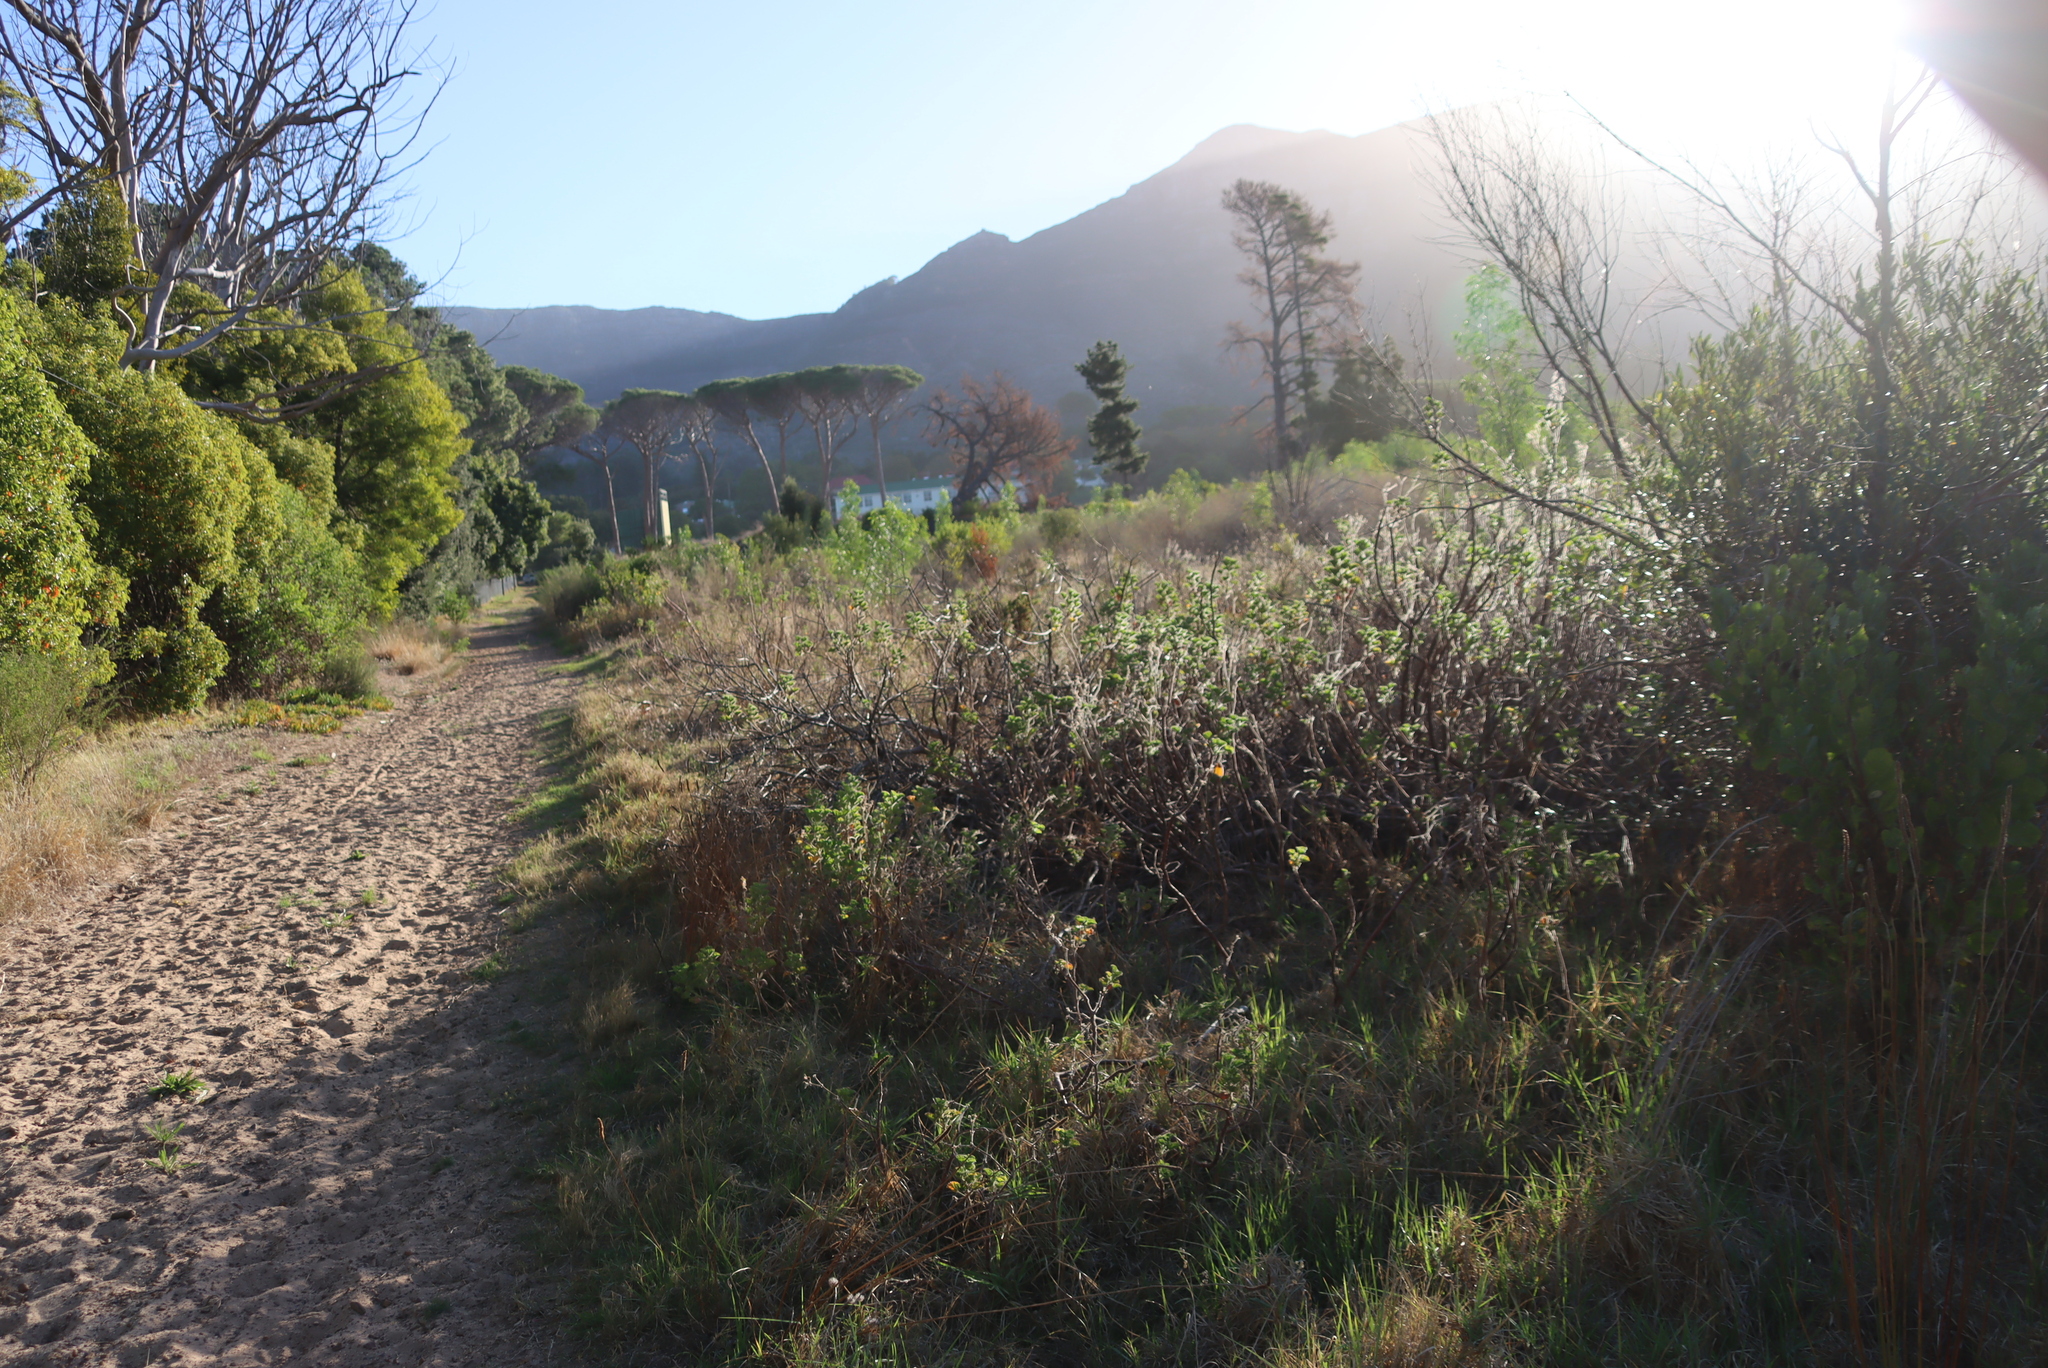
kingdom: Plantae
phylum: Tracheophyta
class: Magnoliopsida
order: Geraniales
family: Geraniaceae
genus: Pelargonium
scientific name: Pelargonium cucullatum
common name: Tree pelargonium
